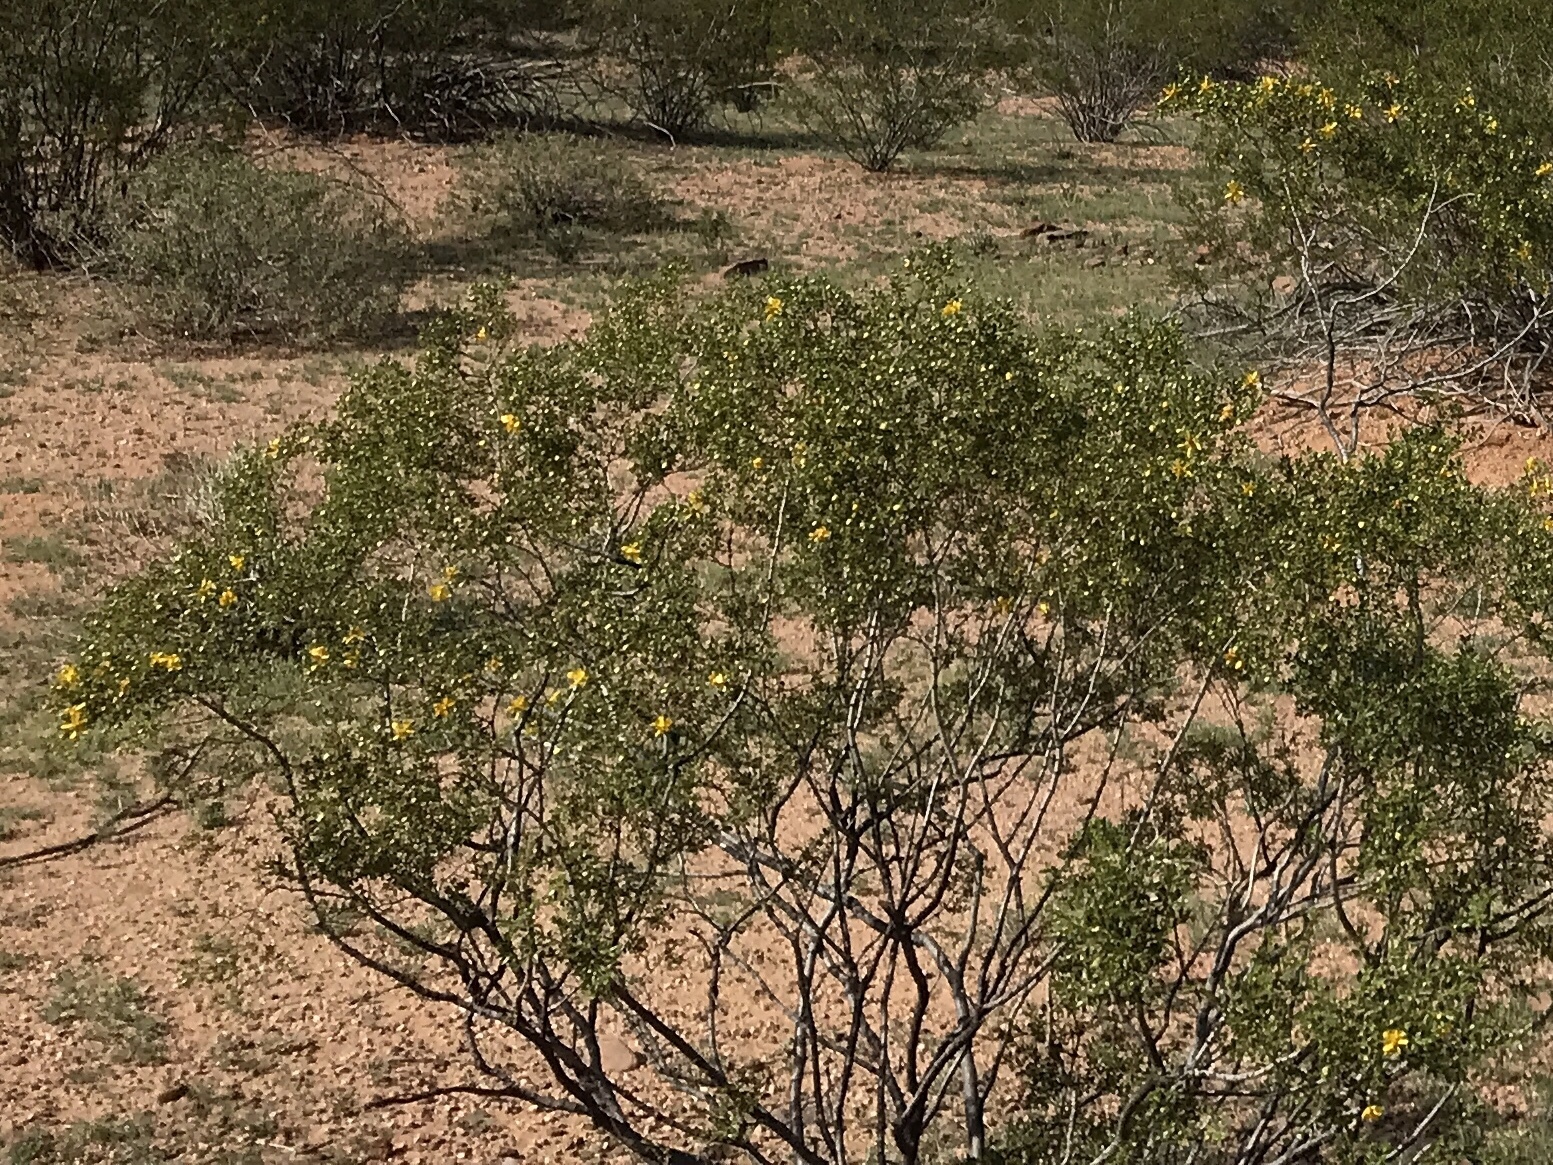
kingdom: Plantae
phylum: Tracheophyta
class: Magnoliopsida
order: Zygophyllales
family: Zygophyllaceae
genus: Larrea
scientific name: Larrea tridentata
